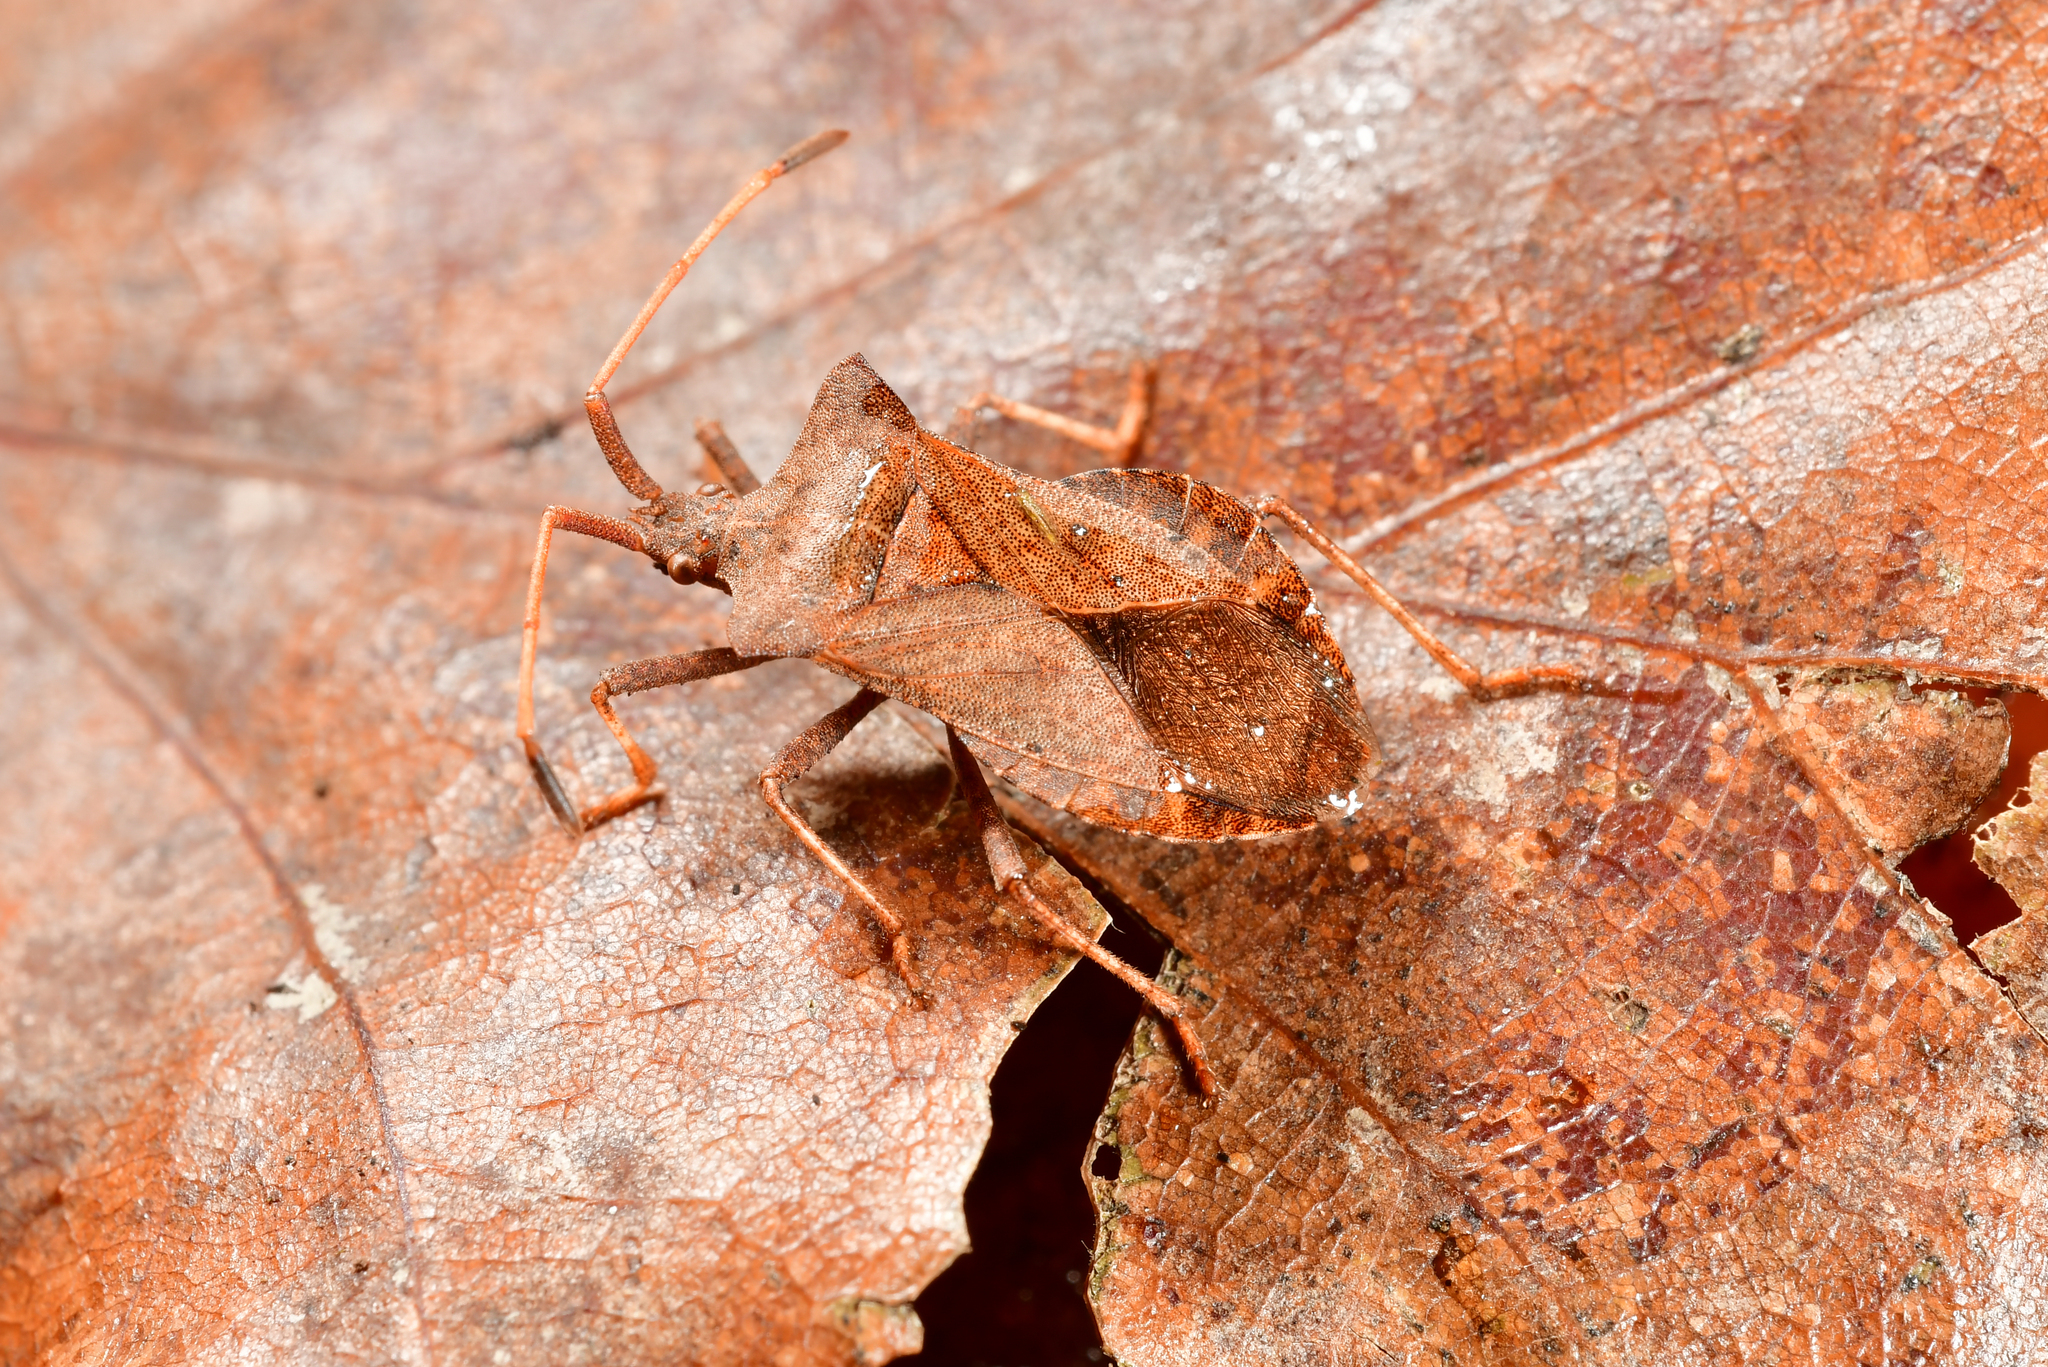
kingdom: Animalia
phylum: Arthropoda
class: Insecta
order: Hemiptera
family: Coreidae
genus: Coreus
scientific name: Coreus marginatus
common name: Dock bug
